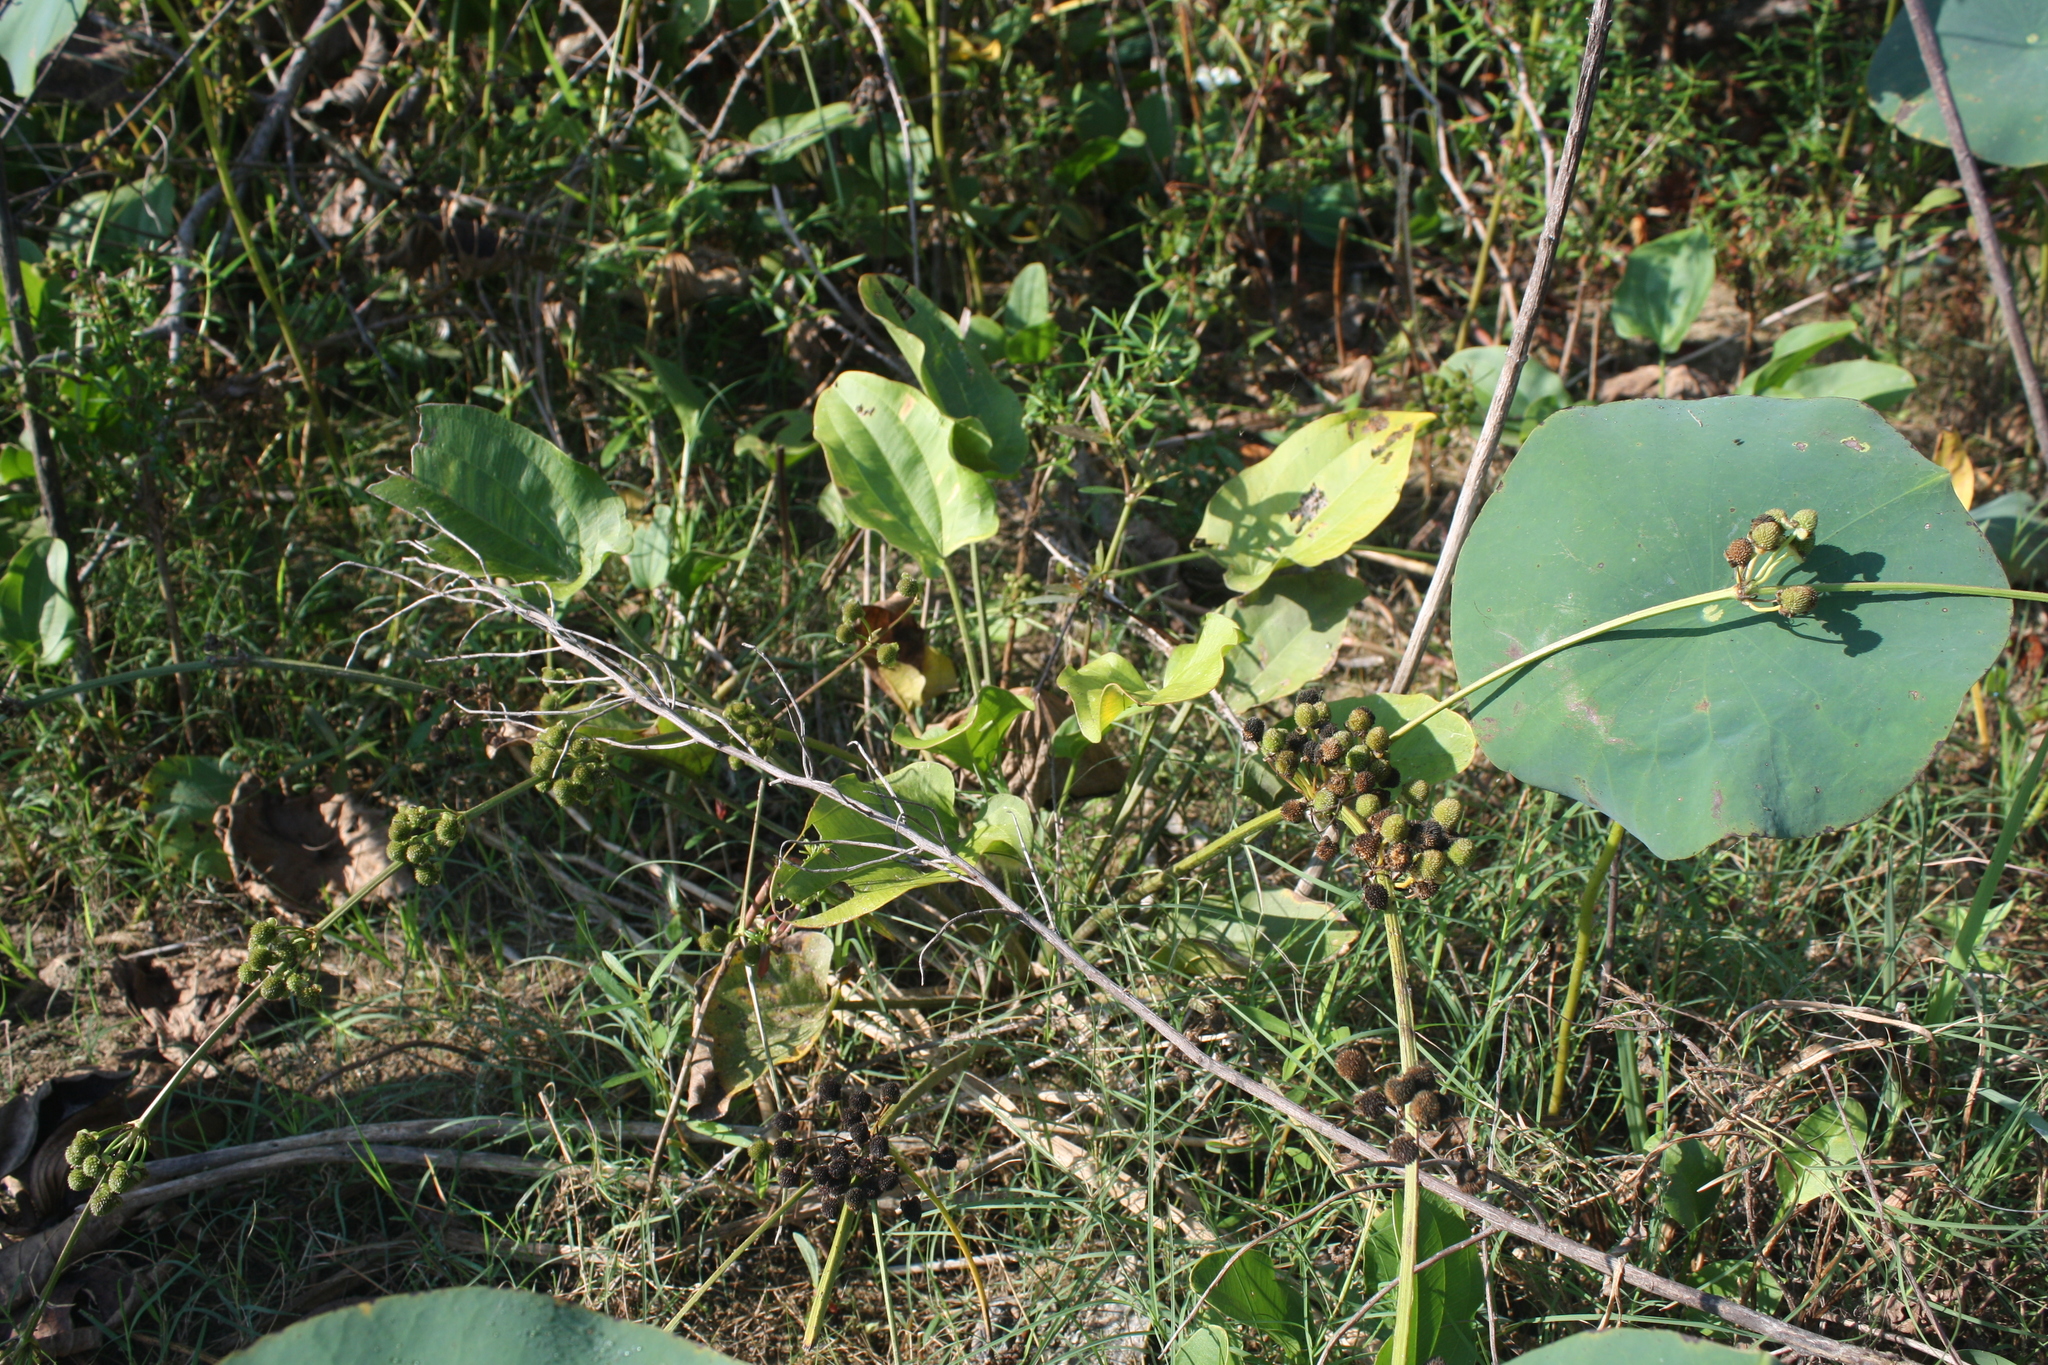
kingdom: Plantae
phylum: Tracheophyta
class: Liliopsida
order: Alismatales
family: Alismataceae
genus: Aquarius
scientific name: Aquarius cordifolius
